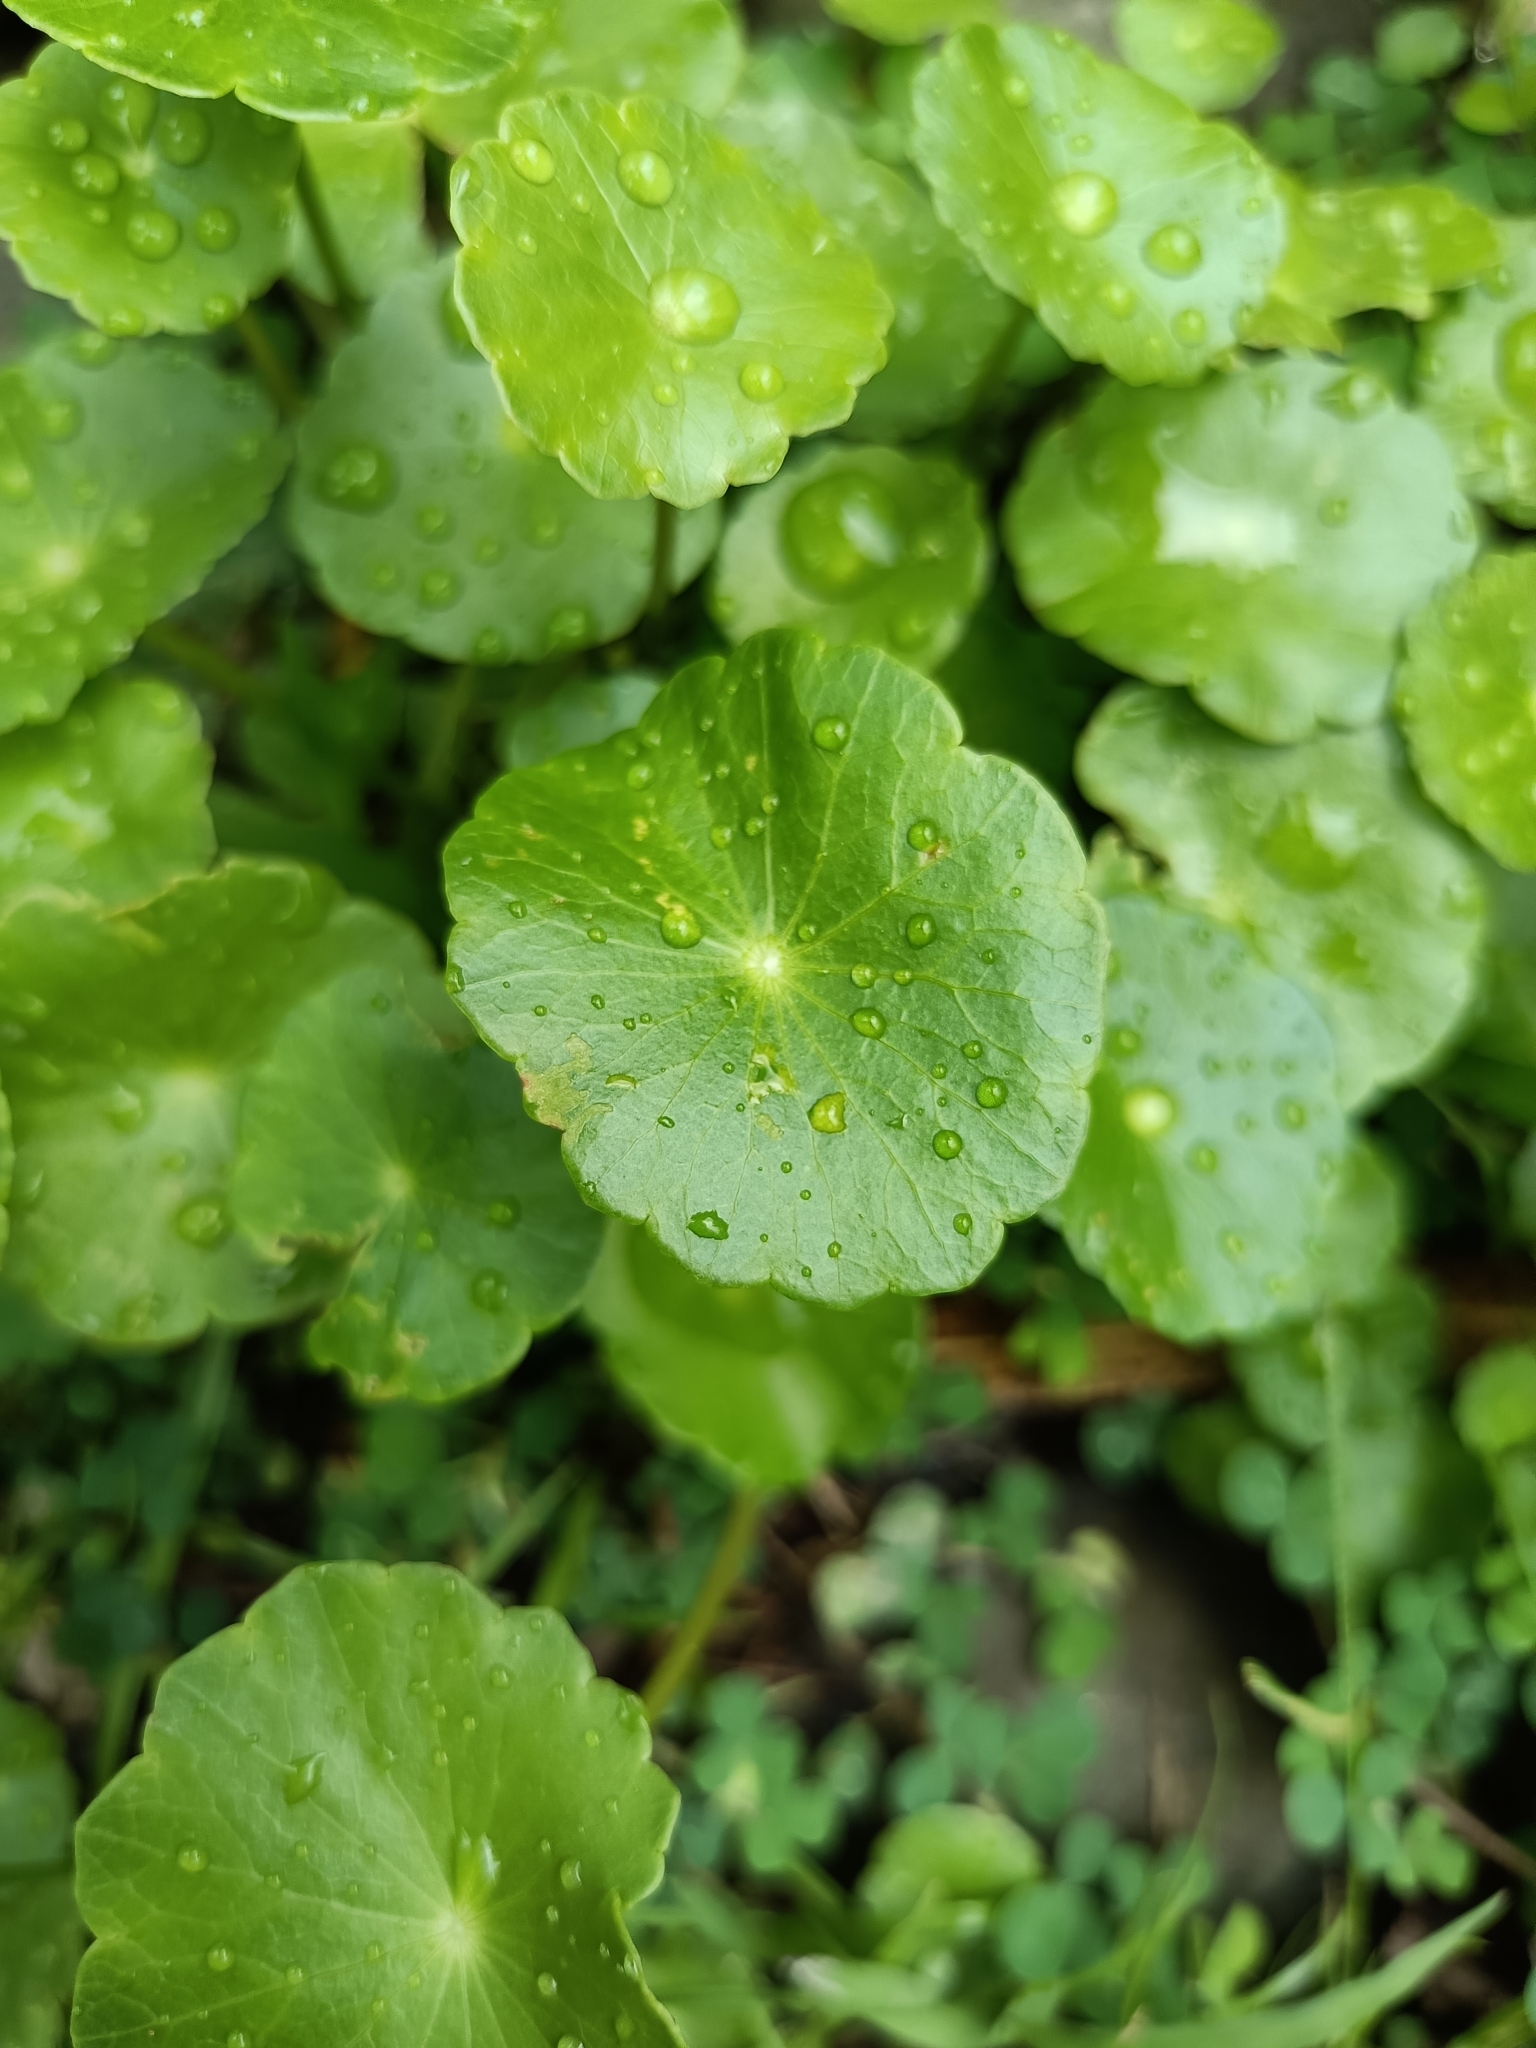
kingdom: Plantae
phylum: Tracheophyta
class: Magnoliopsida
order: Apiales
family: Araliaceae
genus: Hydrocotyle
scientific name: Hydrocotyle verticillata
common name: Whorled marshpennywort
